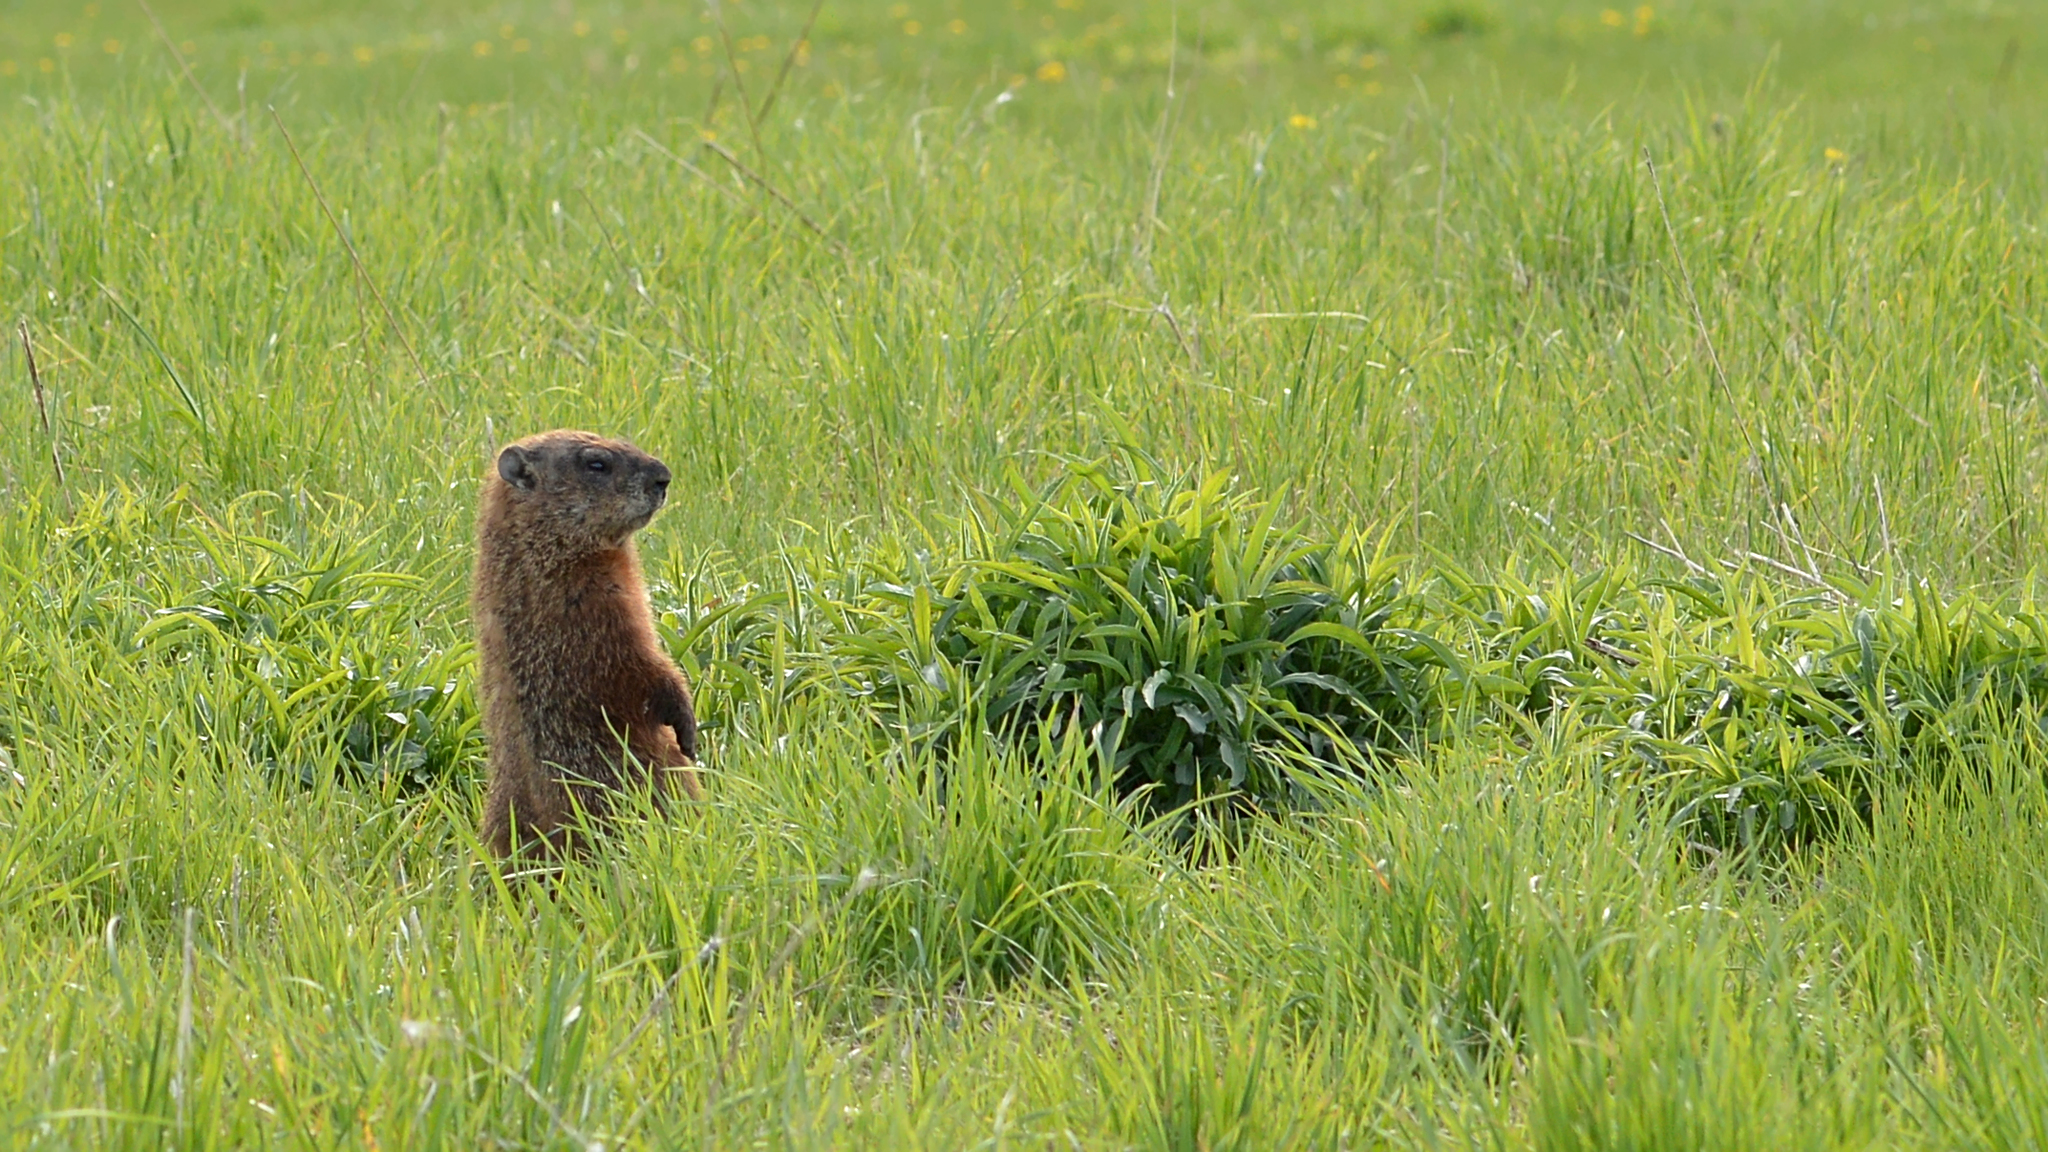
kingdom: Animalia
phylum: Chordata
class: Mammalia
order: Rodentia
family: Sciuridae
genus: Marmota
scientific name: Marmota monax
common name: Groundhog
